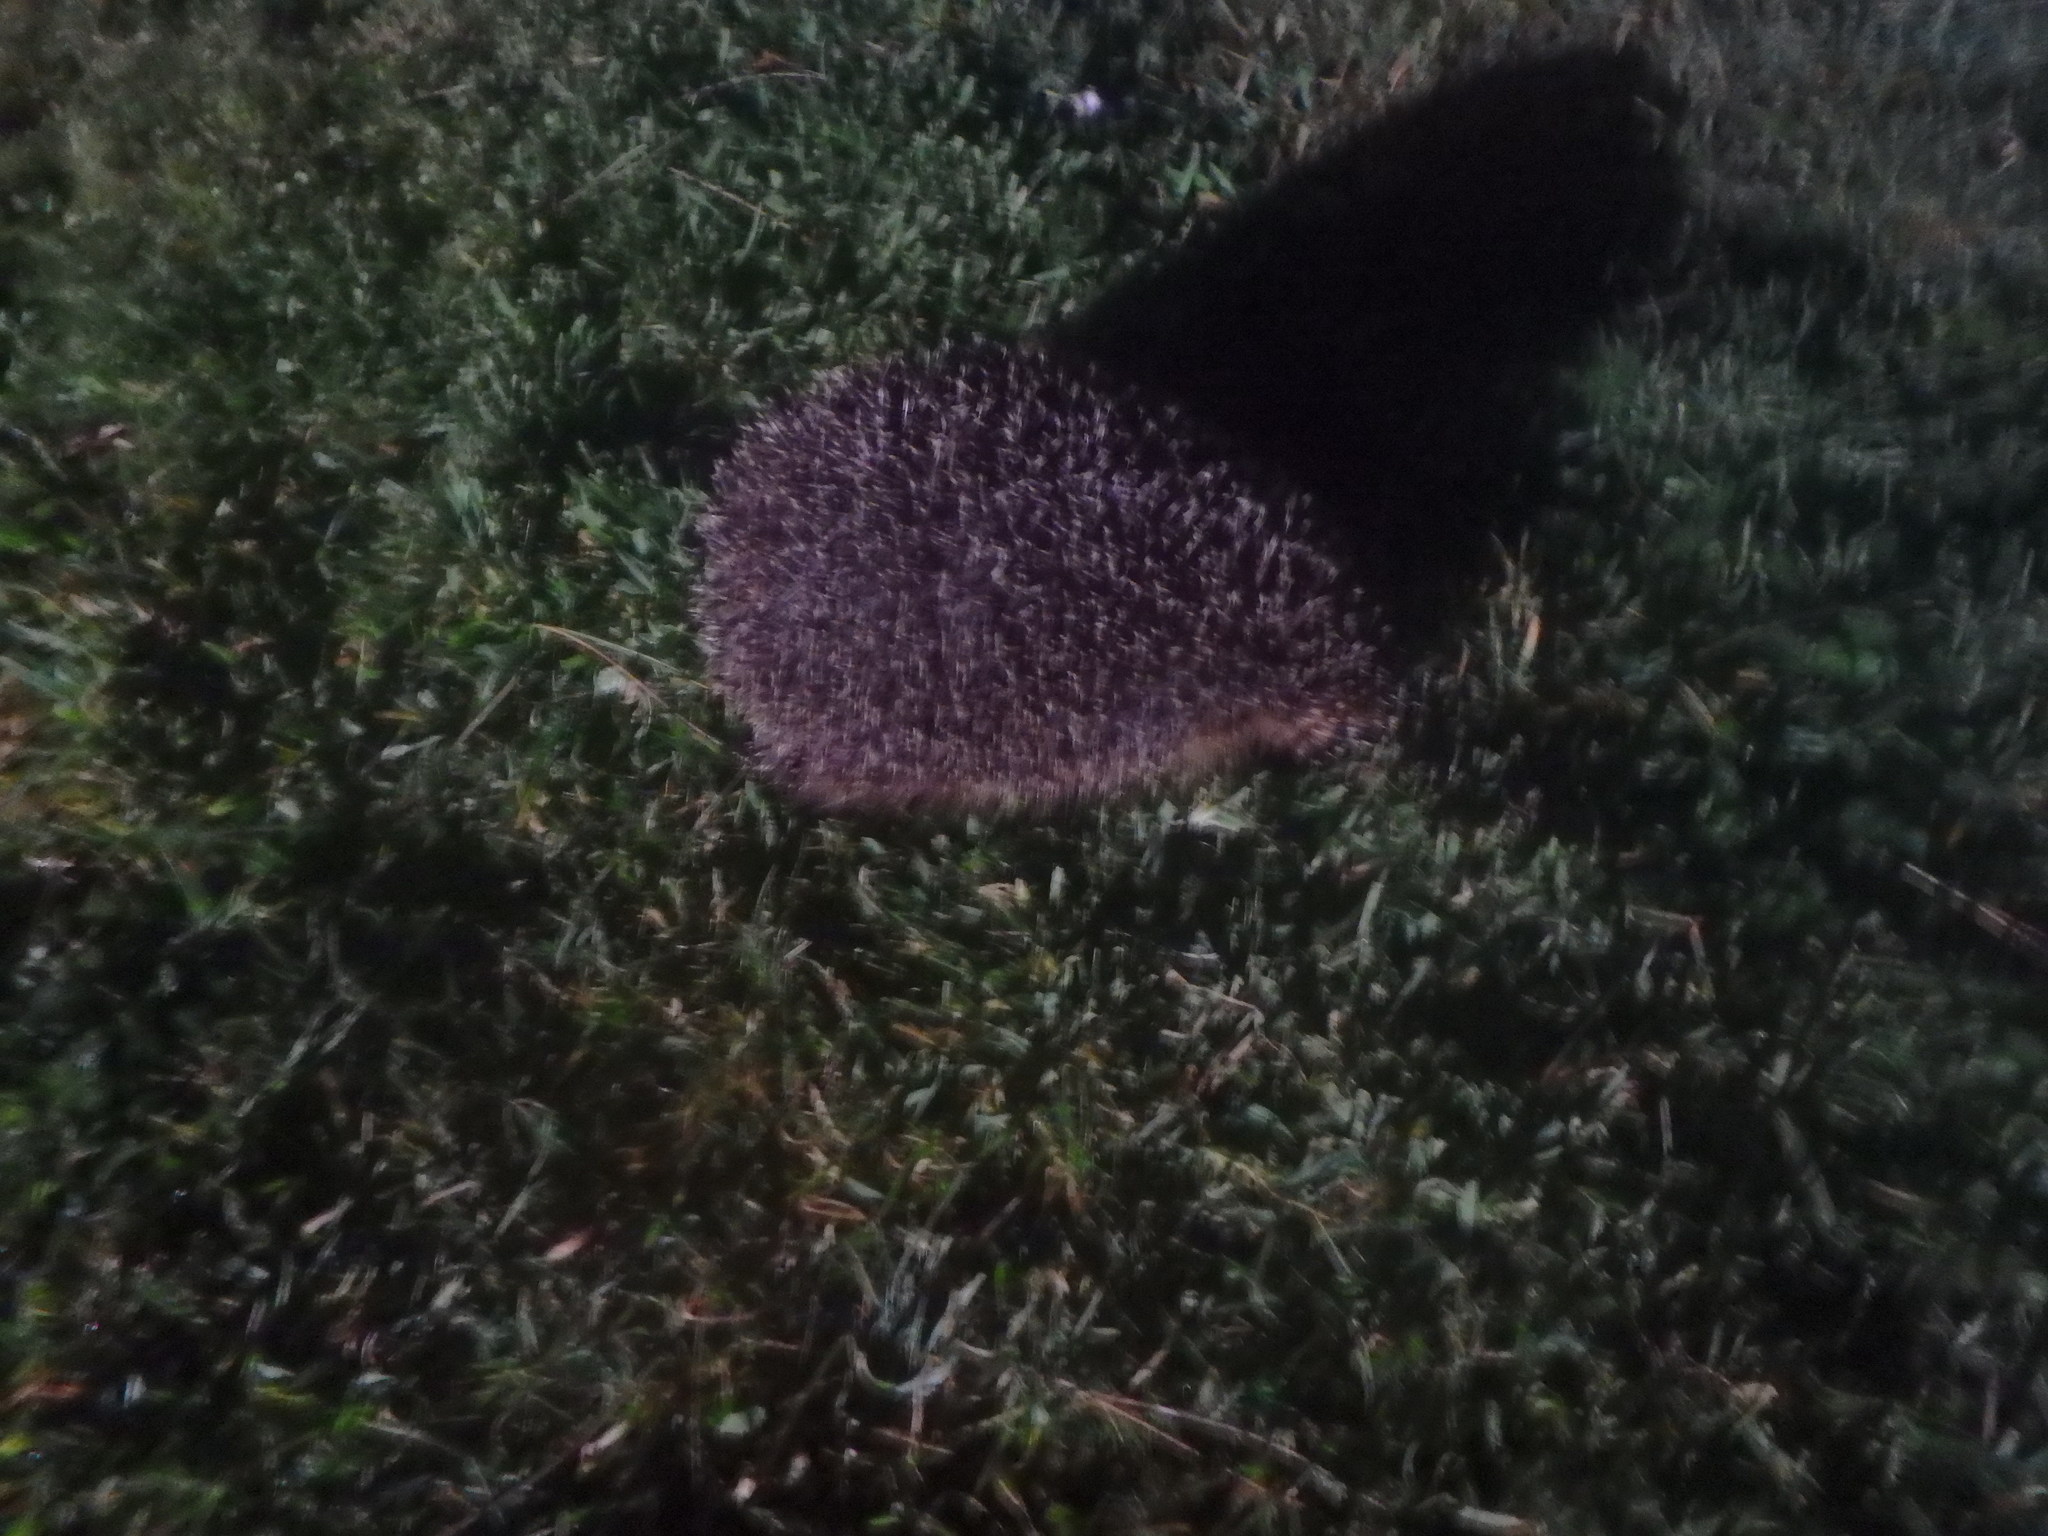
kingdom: Animalia
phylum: Chordata
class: Mammalia
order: Erinaceomorpha
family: Erinaceidae
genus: Erinaceus
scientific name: Erinaceus europaeus
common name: West european hedgehog
